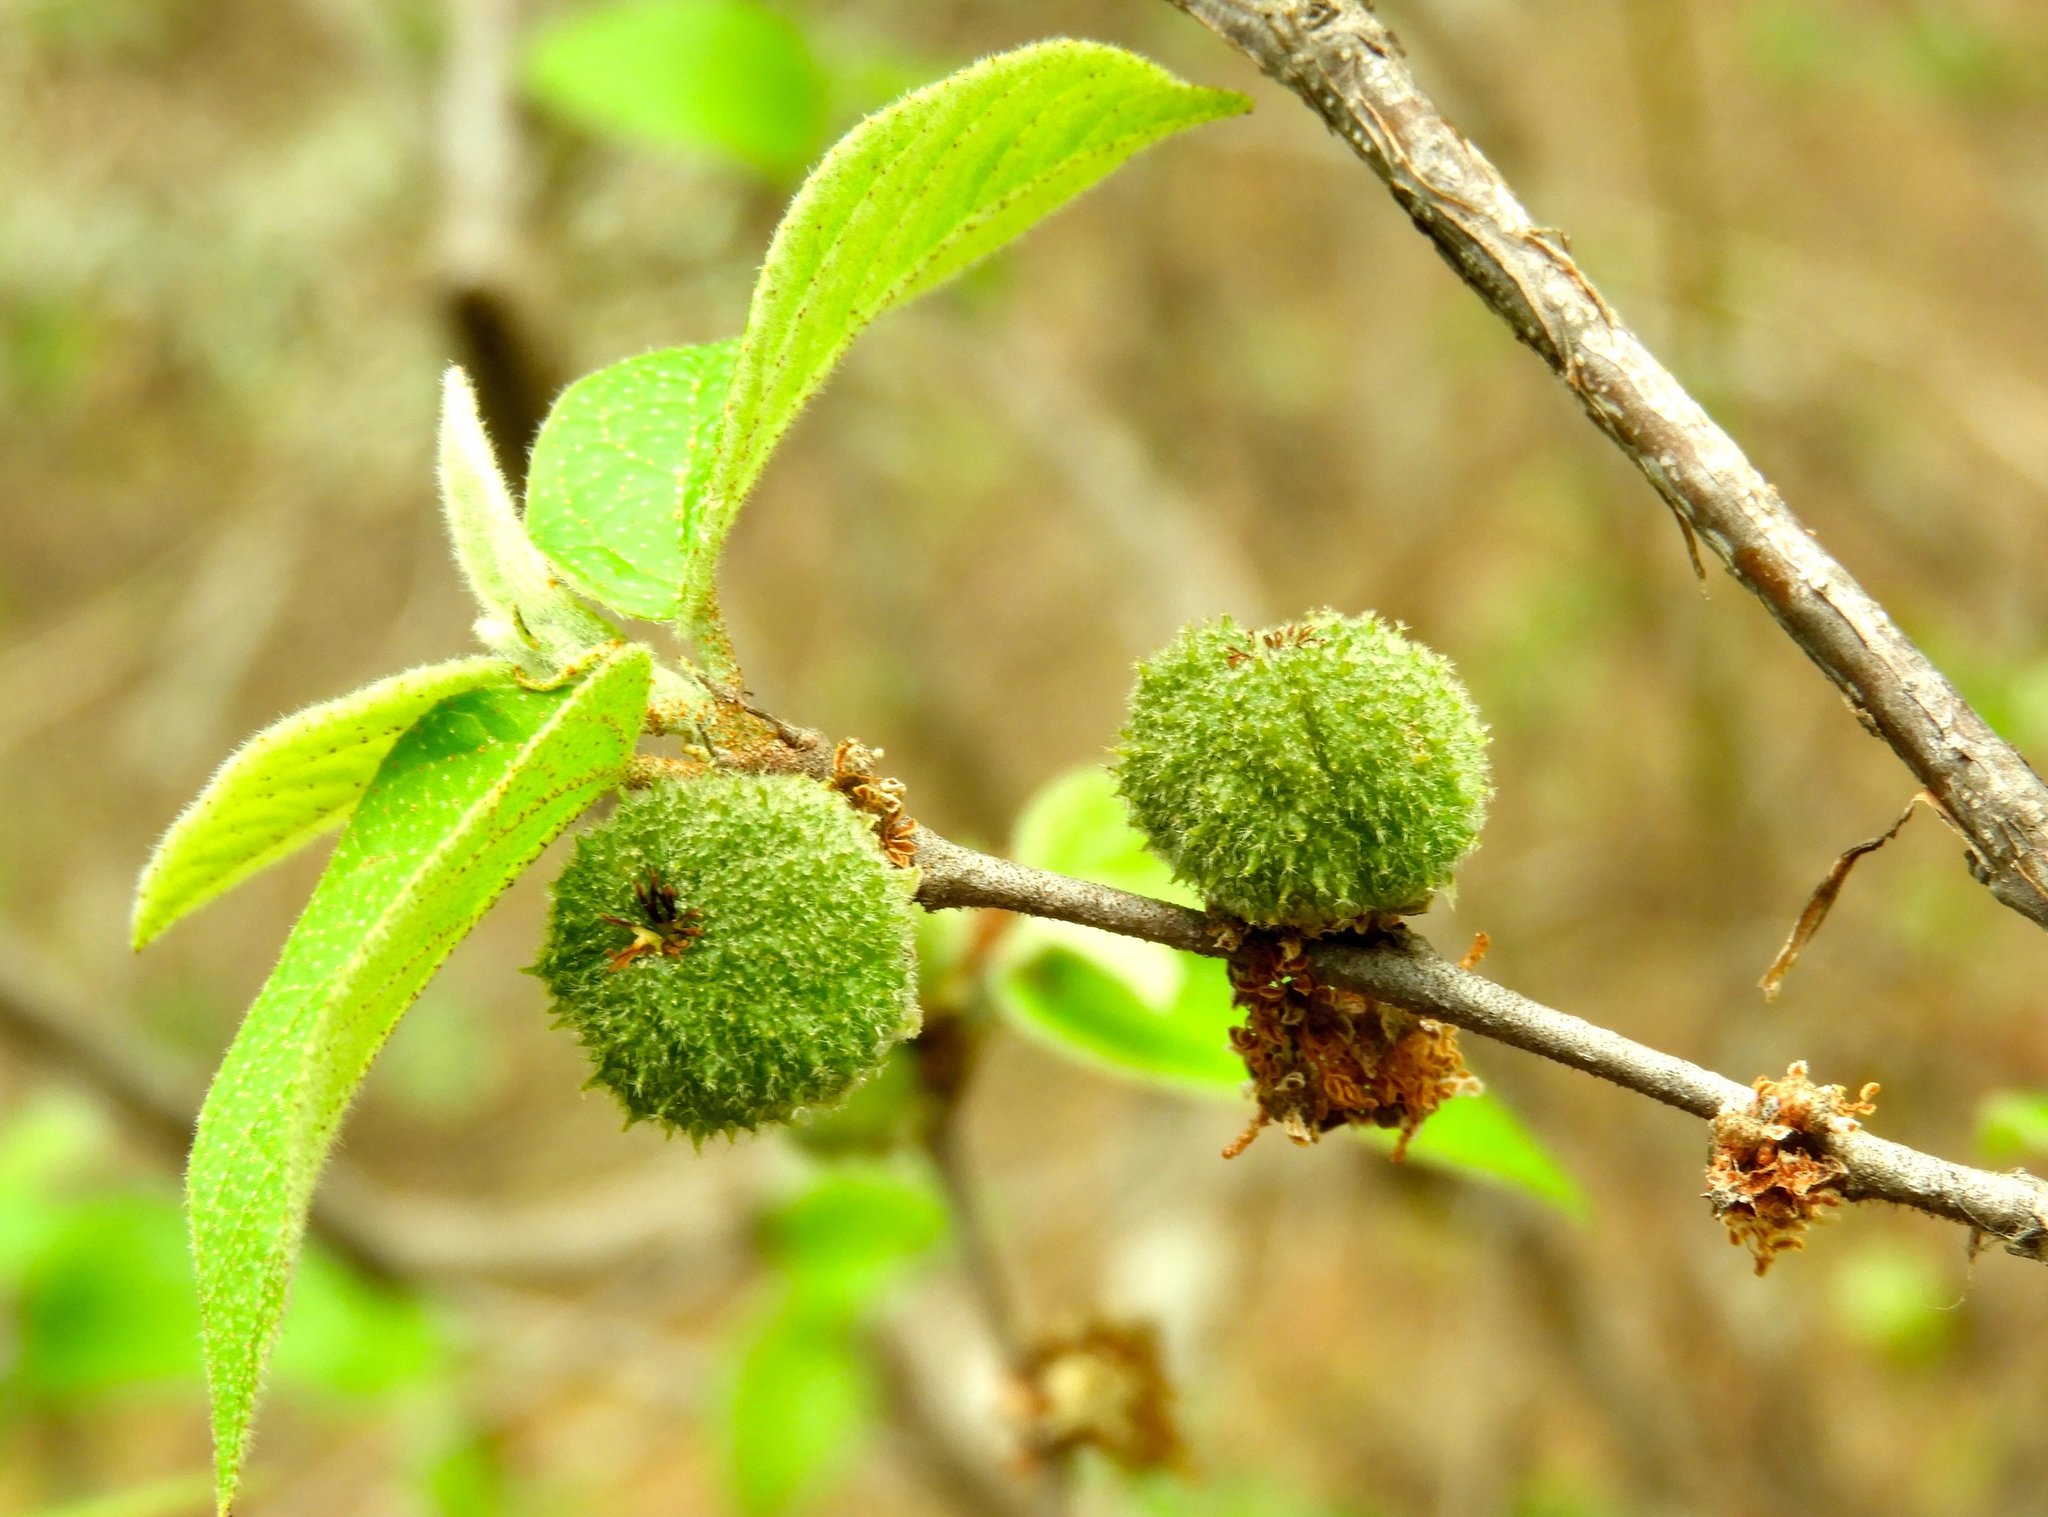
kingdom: Plantae
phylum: Tracheophyta
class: Magnoliopsida
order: Malpighiales
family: Euphorbiaceae
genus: Croton
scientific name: Croton lindquistii
